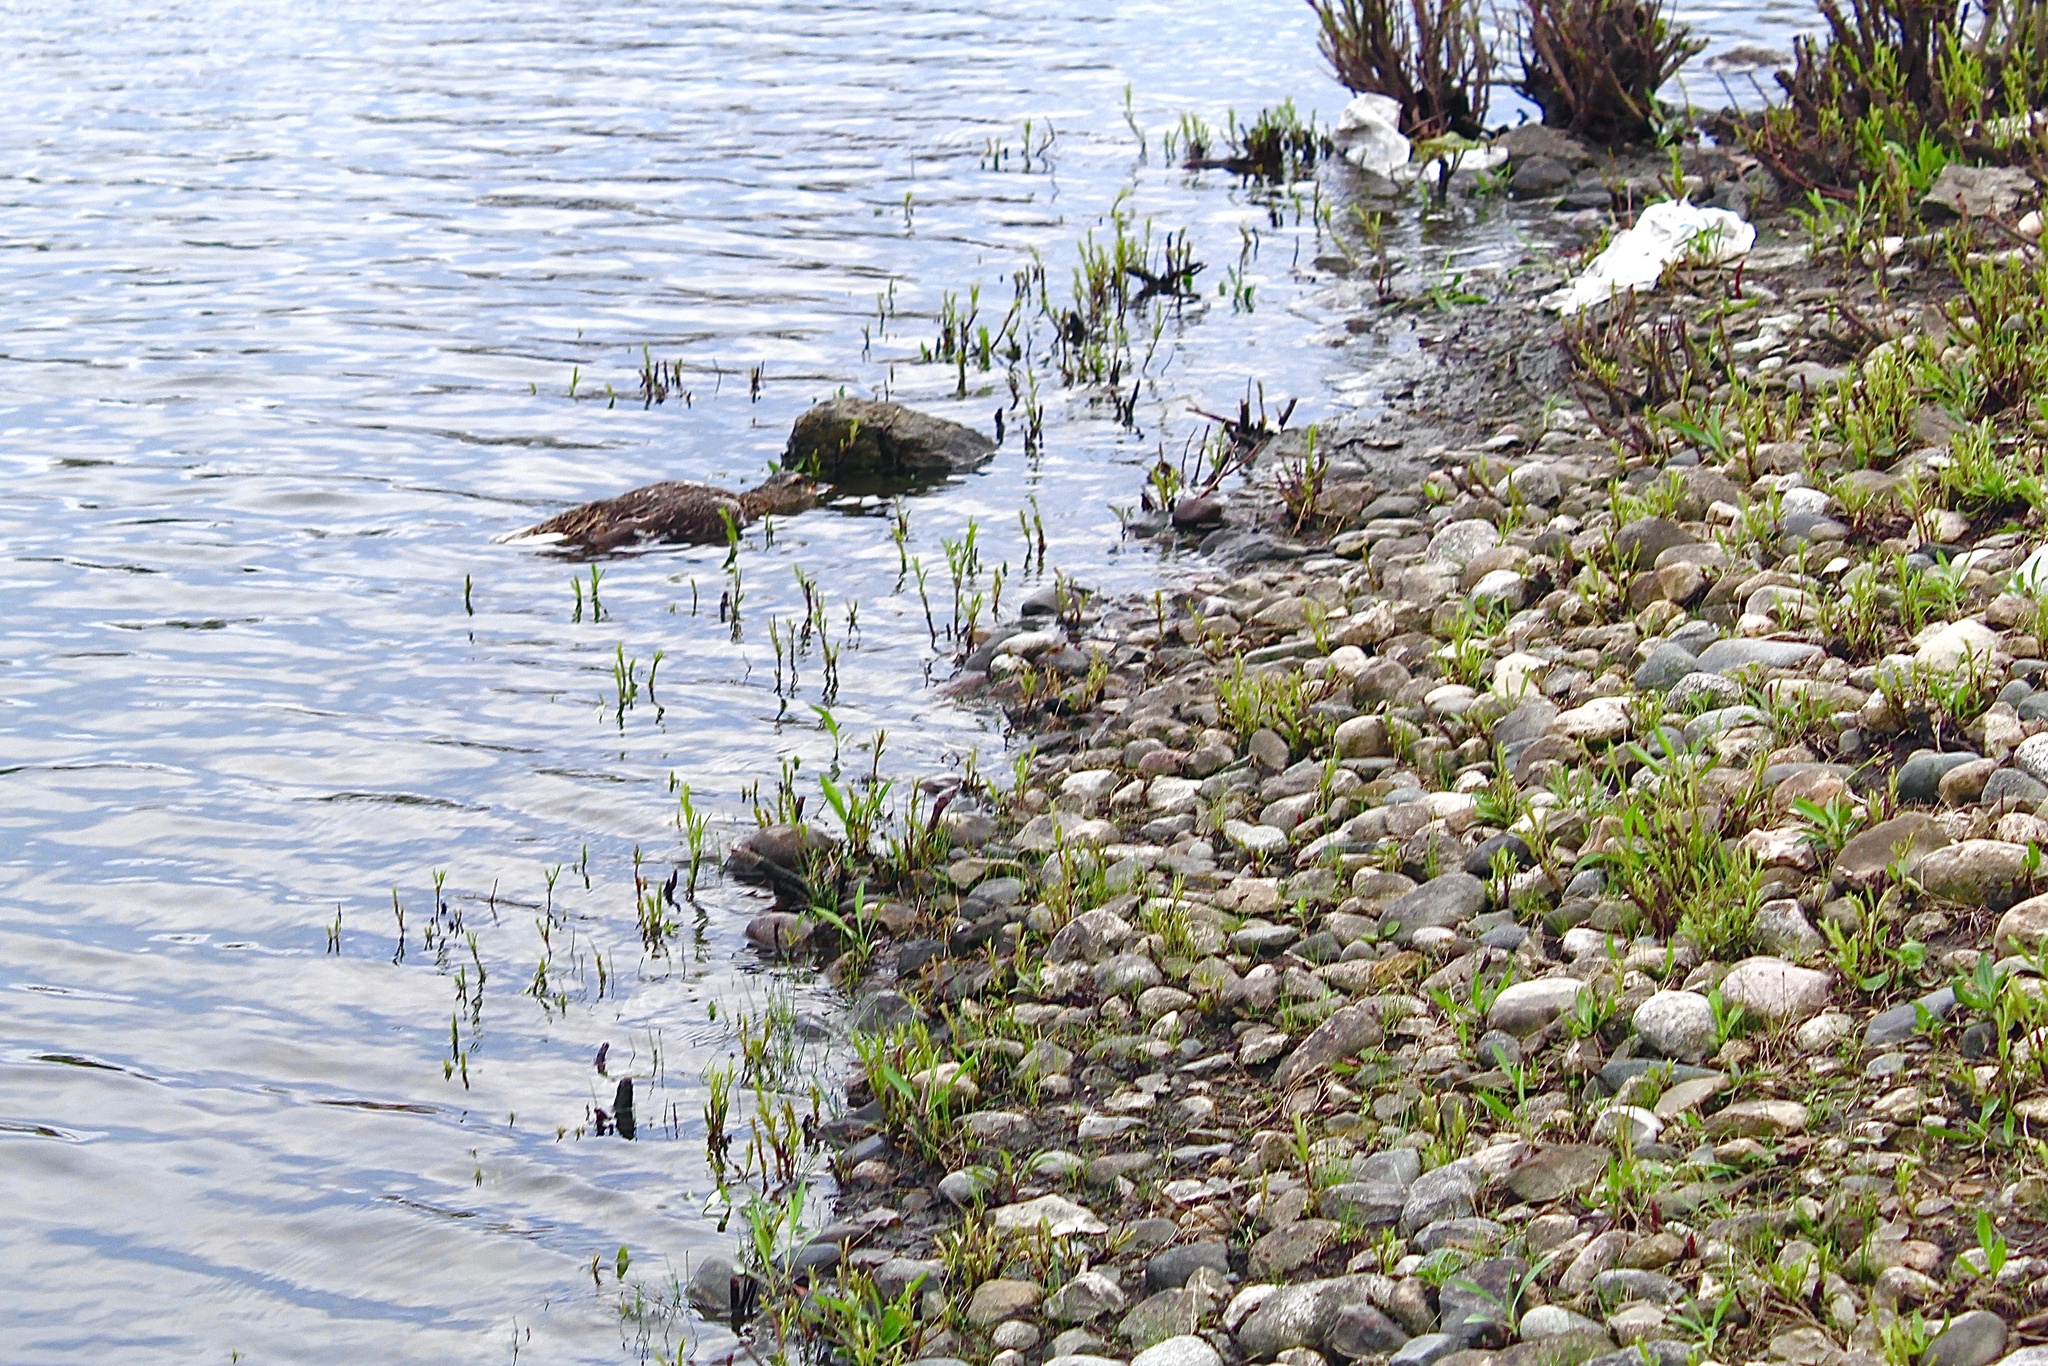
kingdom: Animalia
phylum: Chordata
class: Aves
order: Anseriformes
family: Anatidae
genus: Anas
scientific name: Anas platyrhynchos
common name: Mallard
